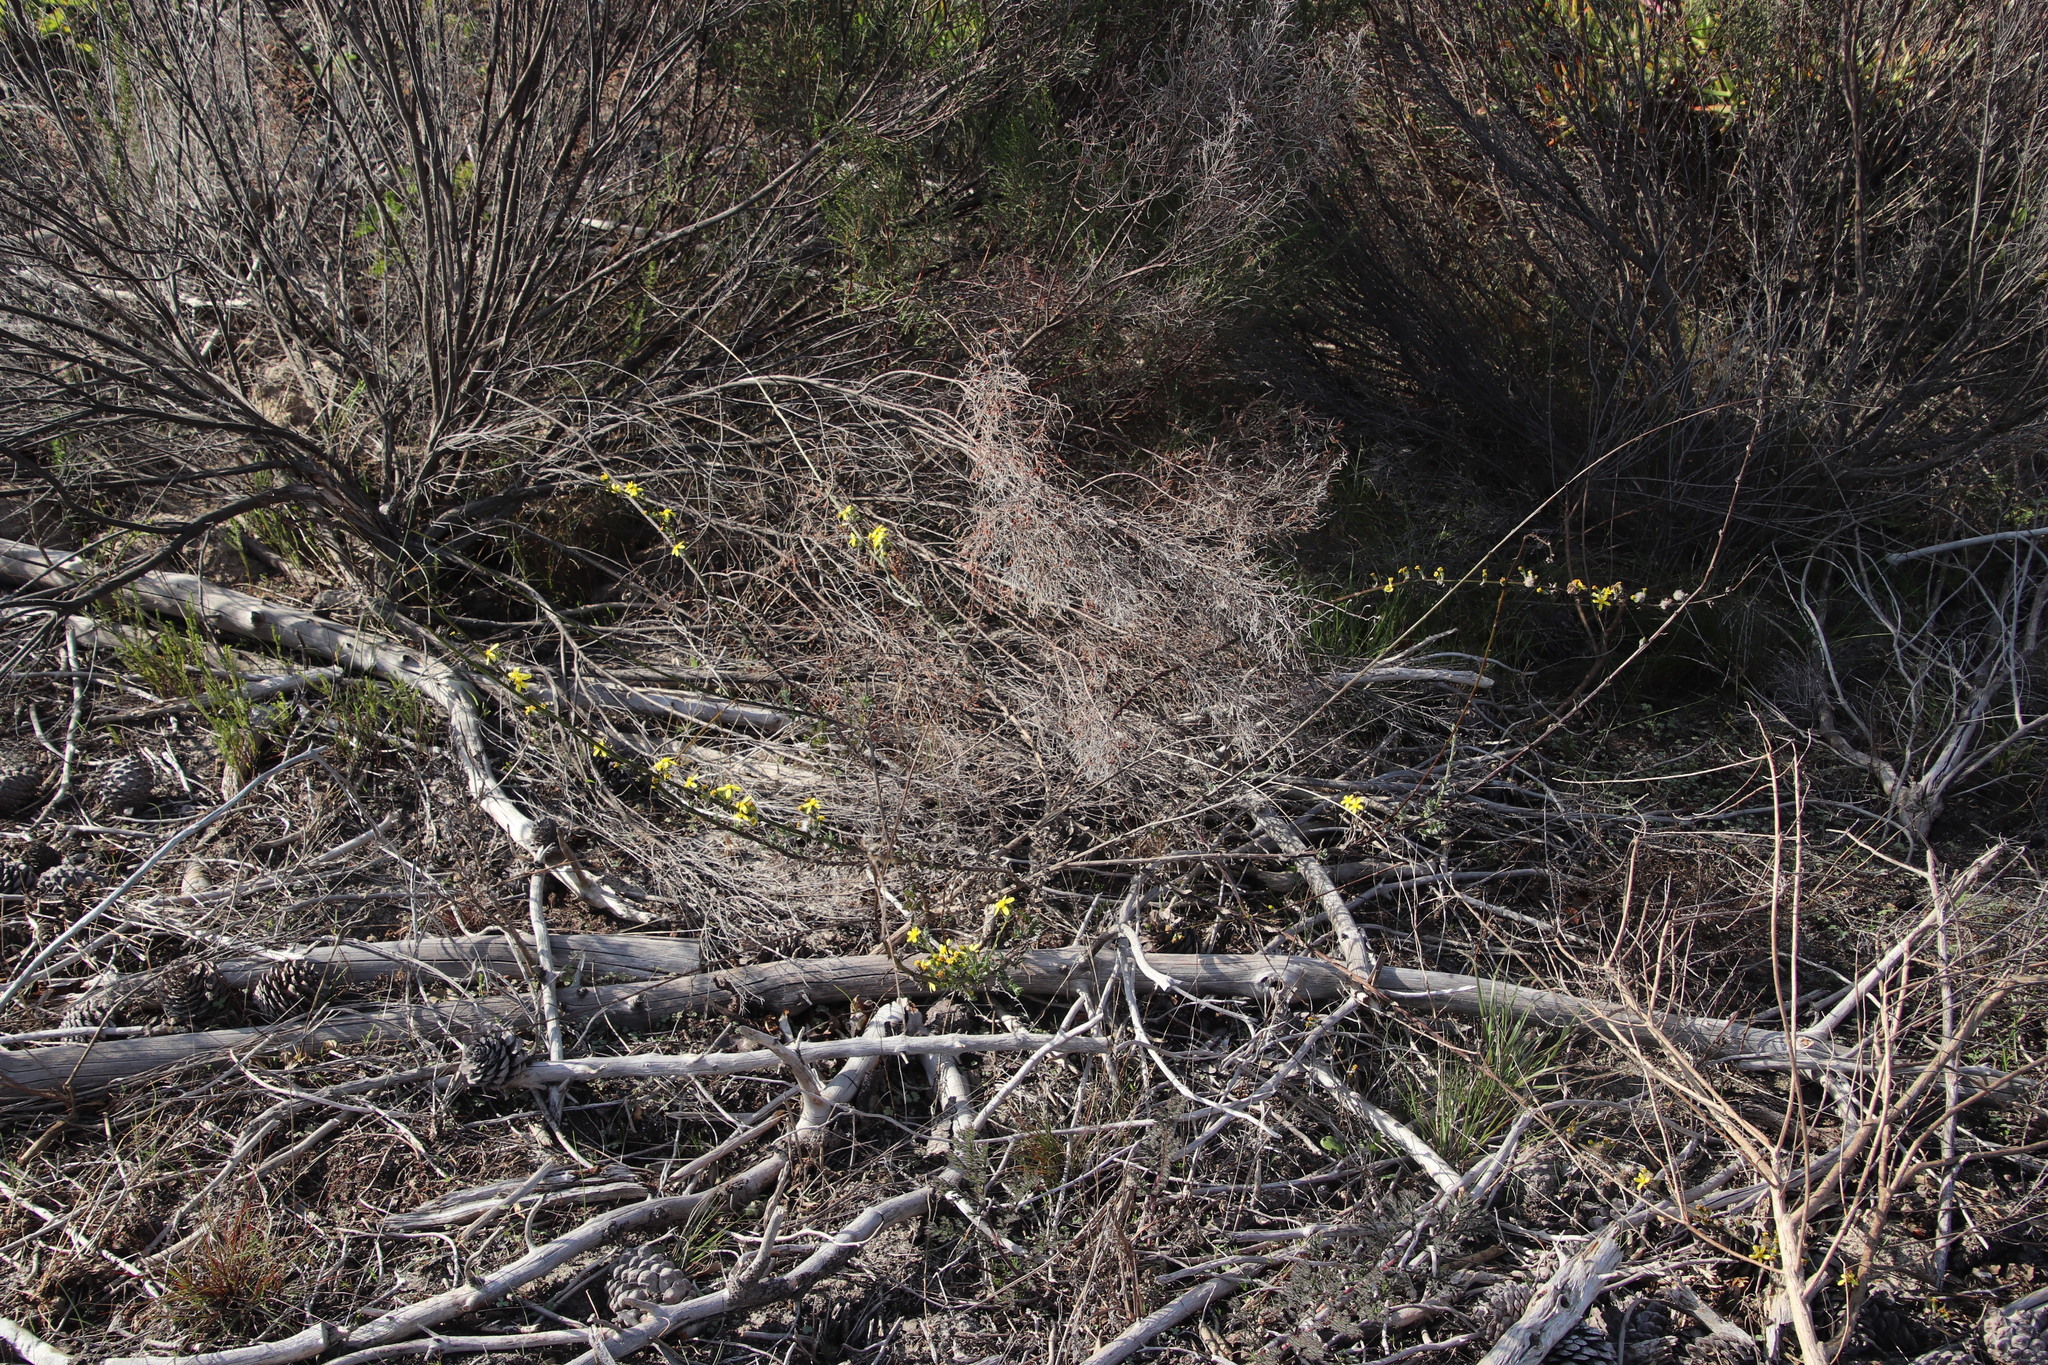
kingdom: Plantae
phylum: Tracheophyta
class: Magnoliopsida
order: Asterales
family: Asteraceae
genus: Senecio
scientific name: Senecio pubigerus
